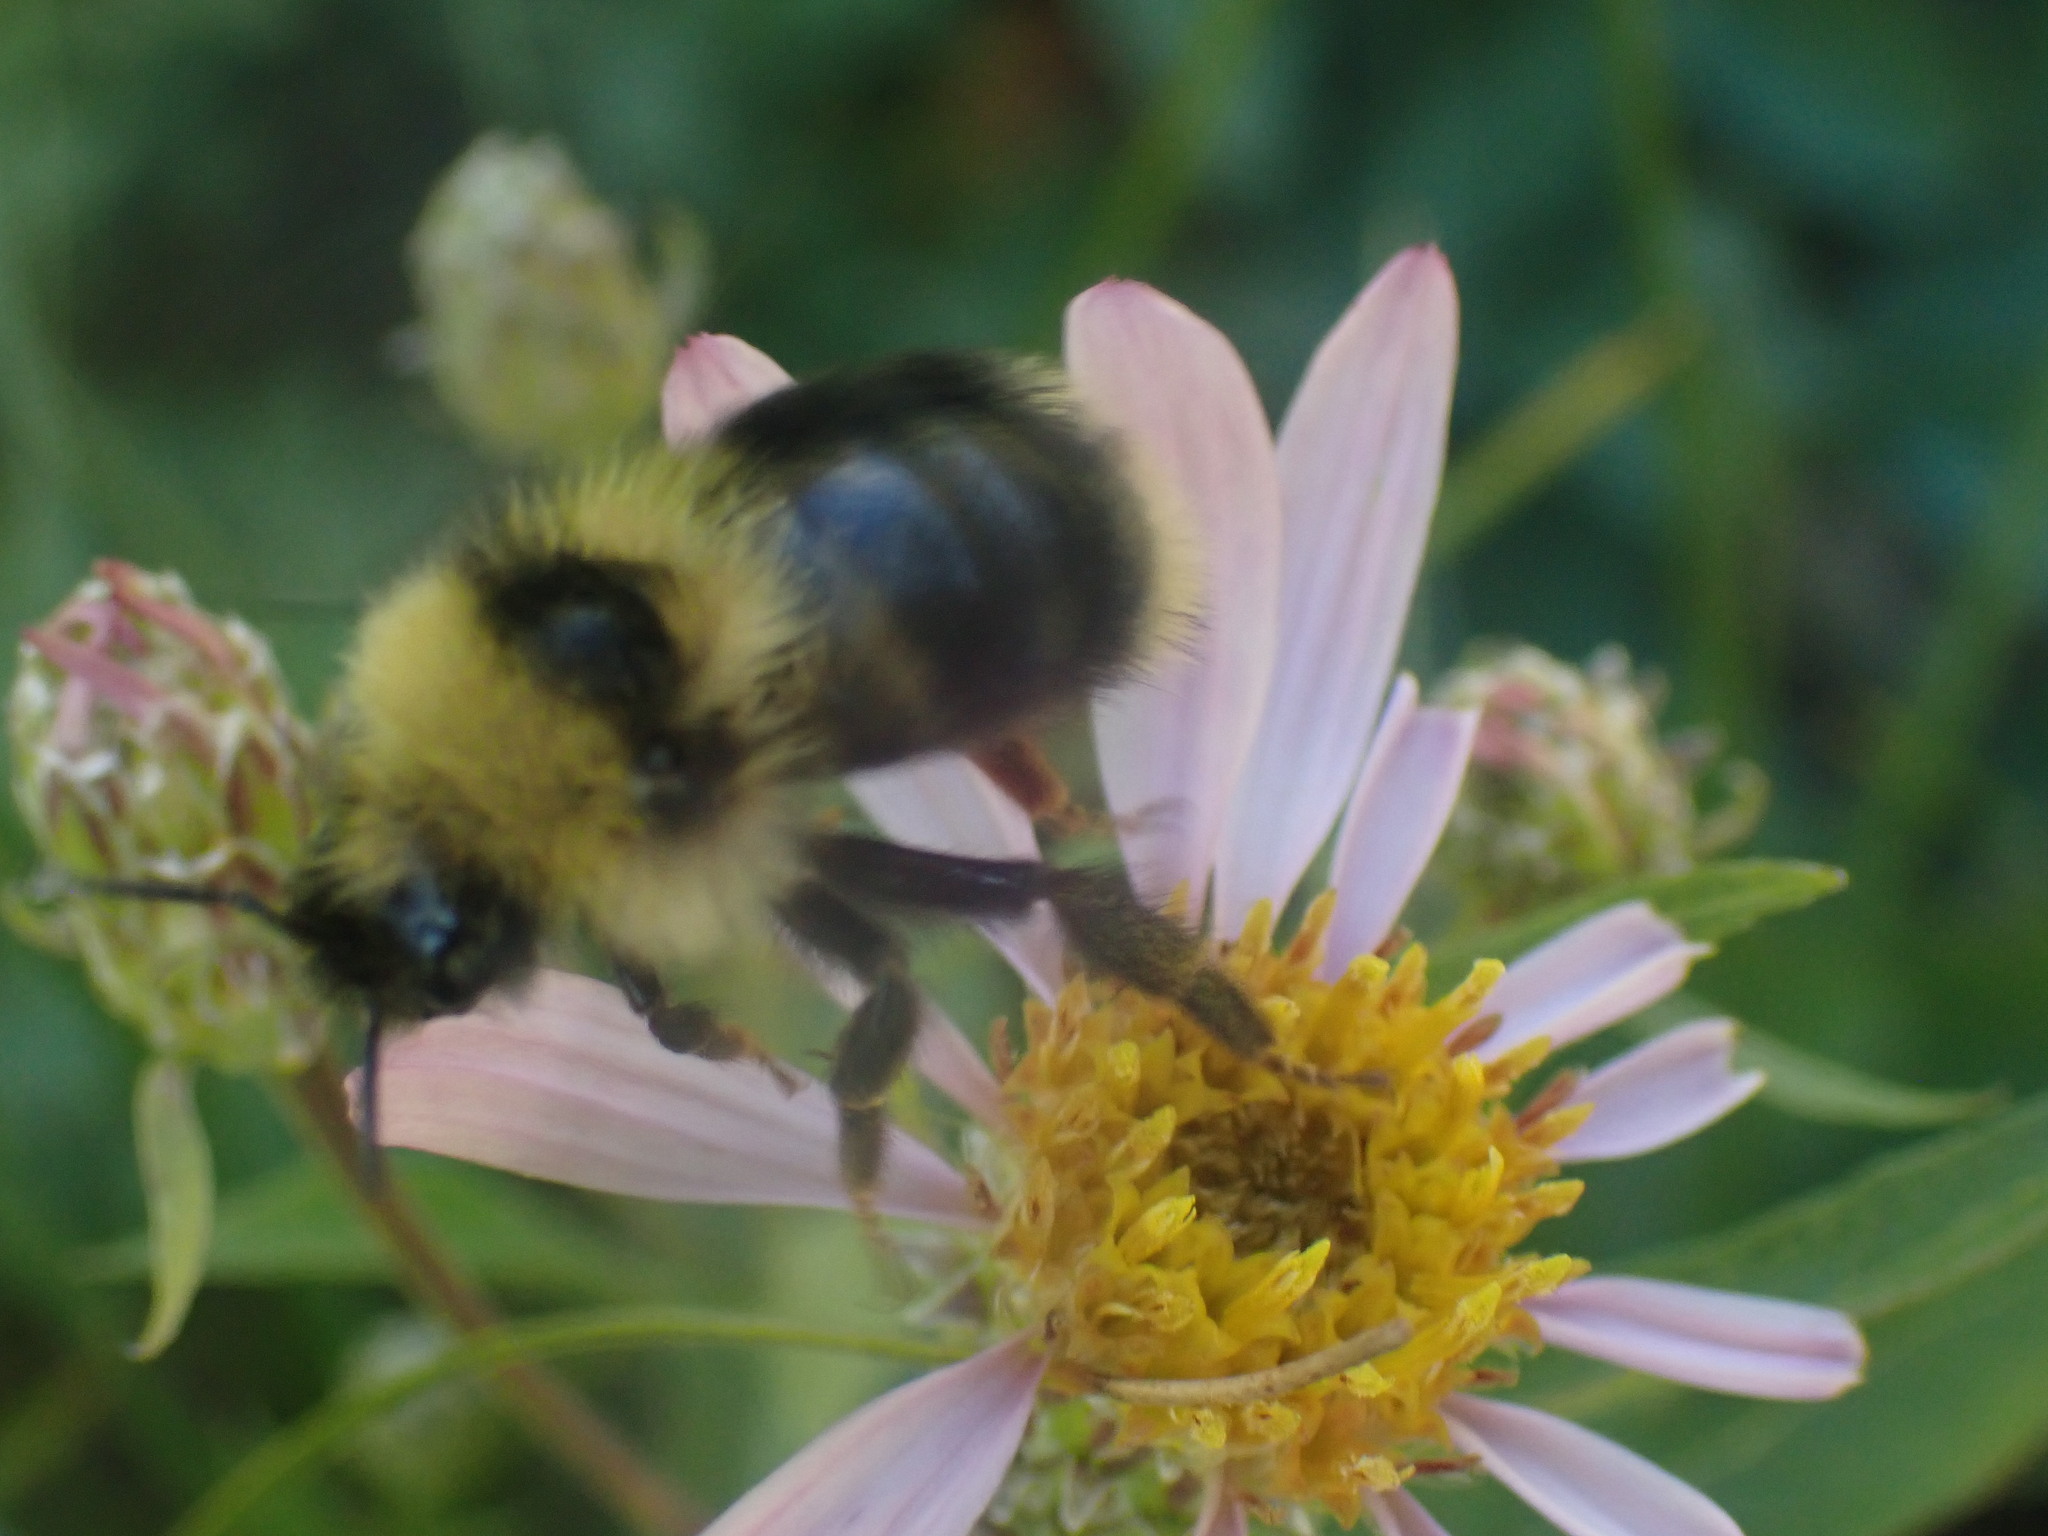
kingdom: Animalia
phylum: Arthropoda
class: Insecta
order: Hymenoptera
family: Apidae
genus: Bombus
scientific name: Bombus flavidus
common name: Fernald cuckoo bumble bee
